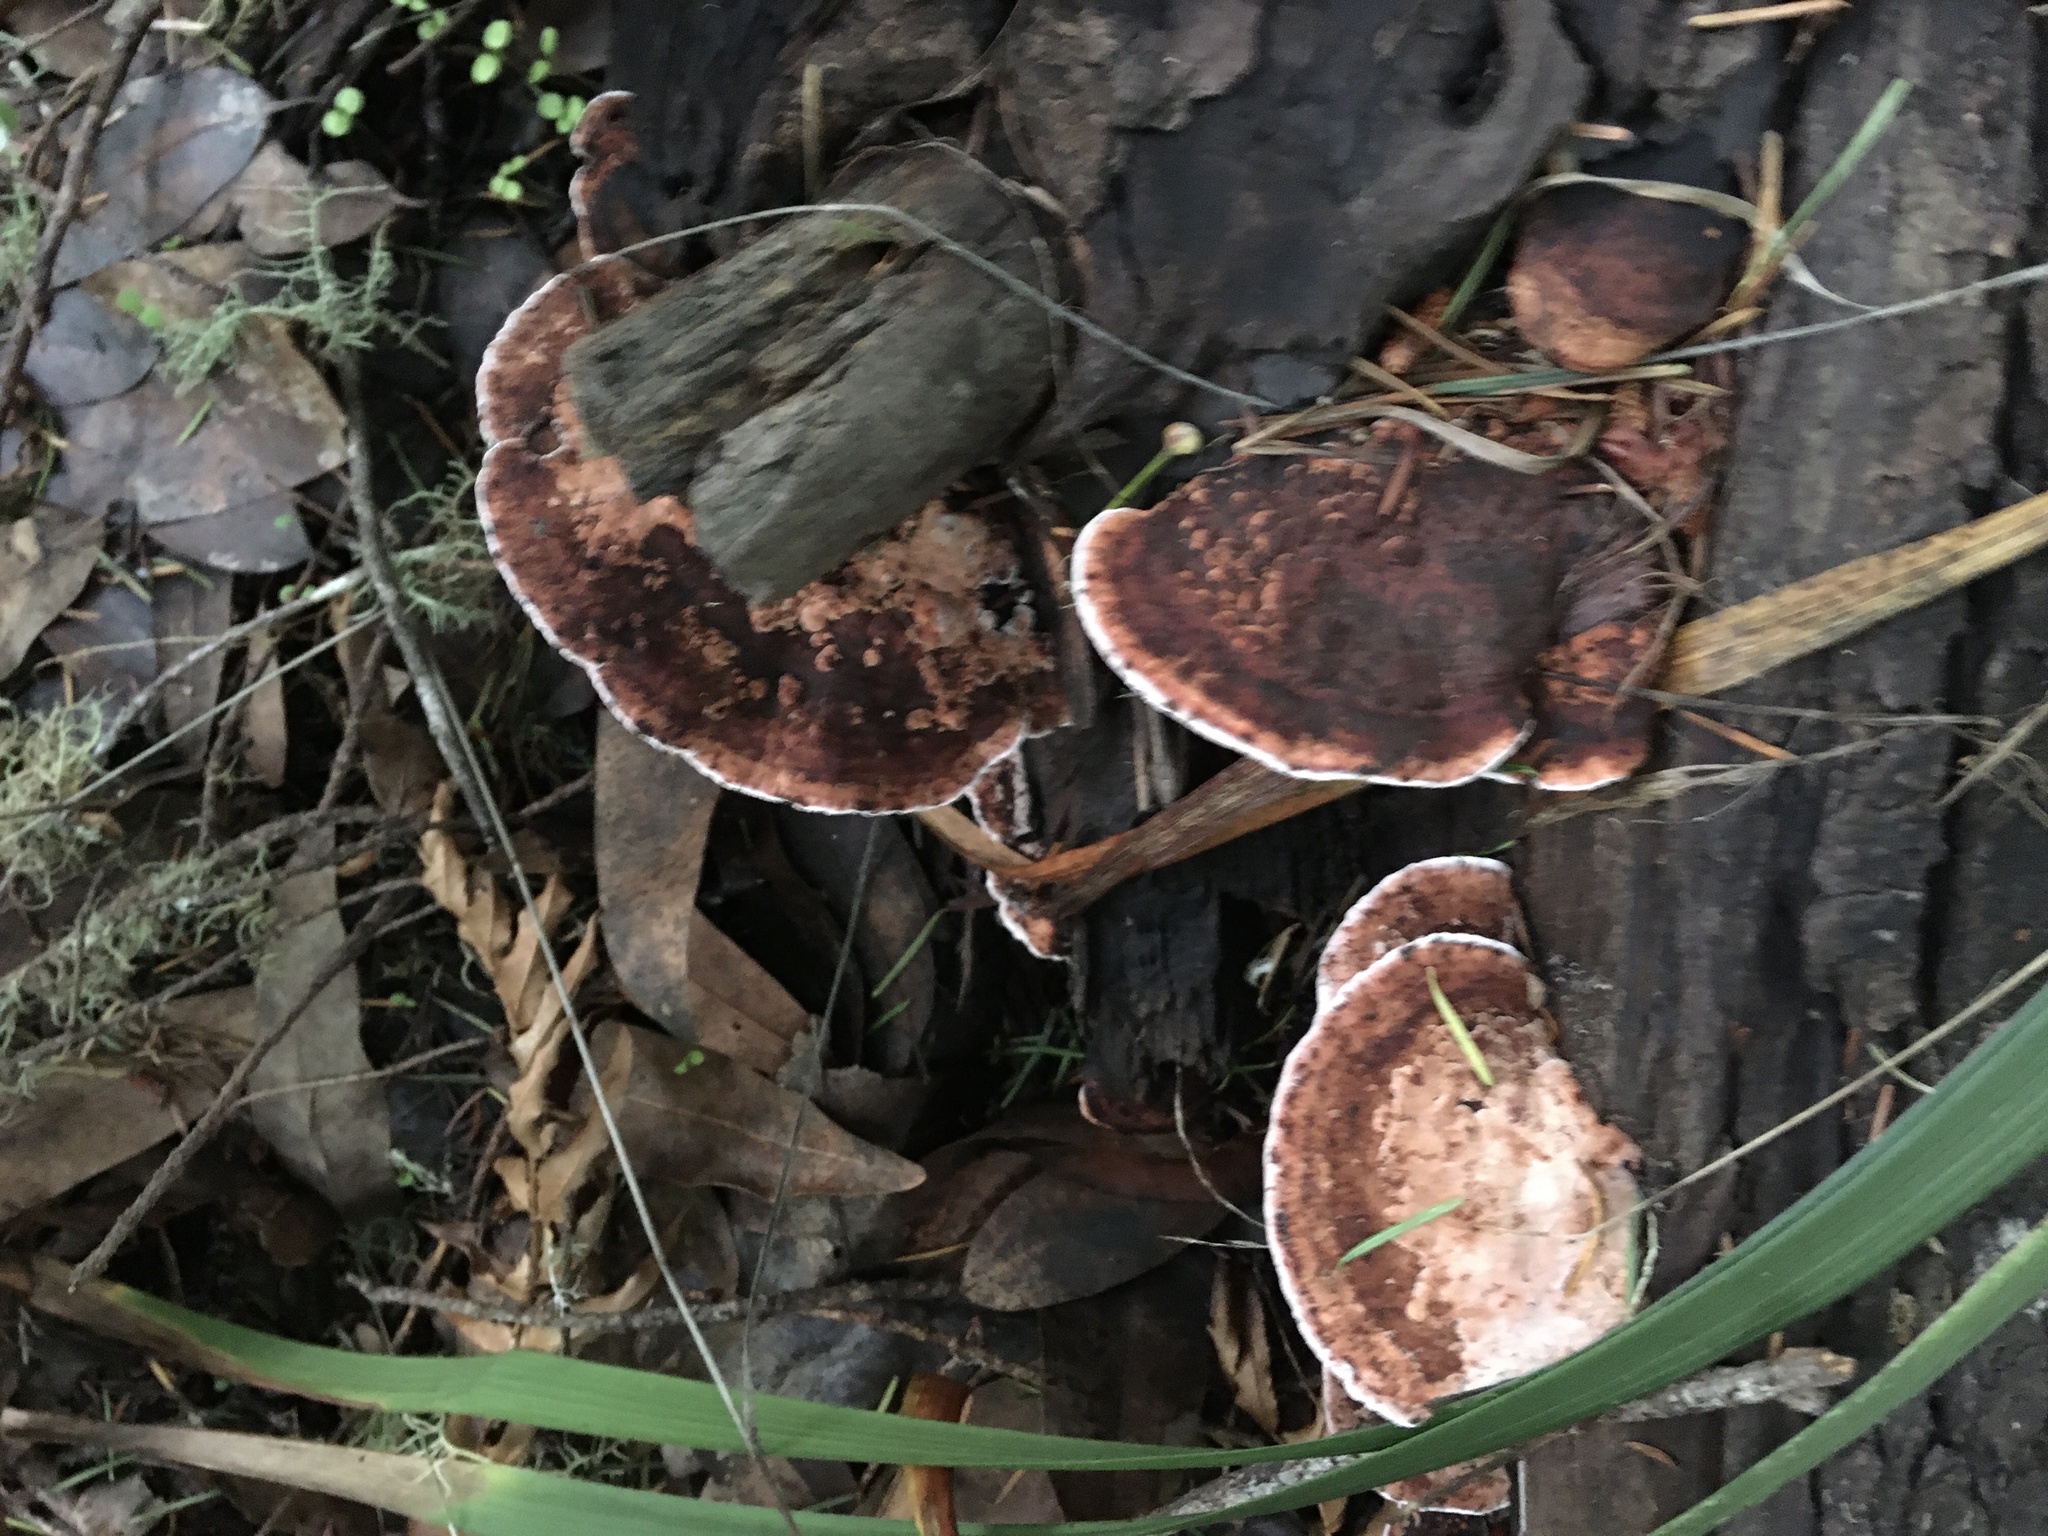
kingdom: Fungi
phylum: Basidiomycota
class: Agaricomycetes
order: Polyporales
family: Fomitopsidaceae
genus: Rhodofomes
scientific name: Rhodofomes cajanderi
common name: Rosy conk
